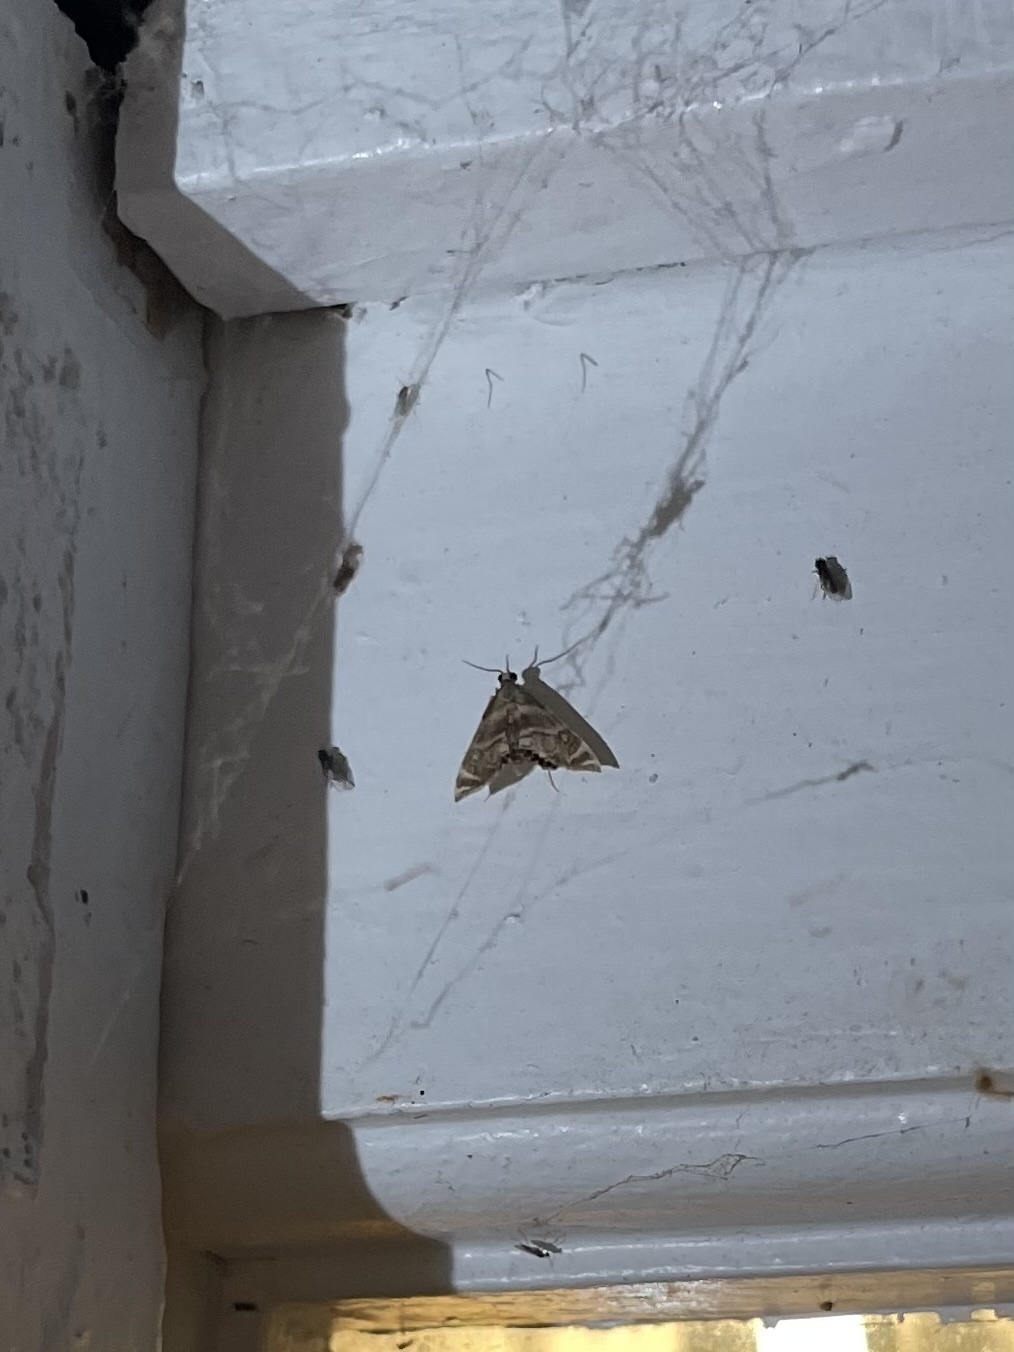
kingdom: Animalia
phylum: Arthropoda
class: Insecta
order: Lepidoptera
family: Crambidae
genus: Petrophila
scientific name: Petrophila canadensis
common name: Canadian petrophila
